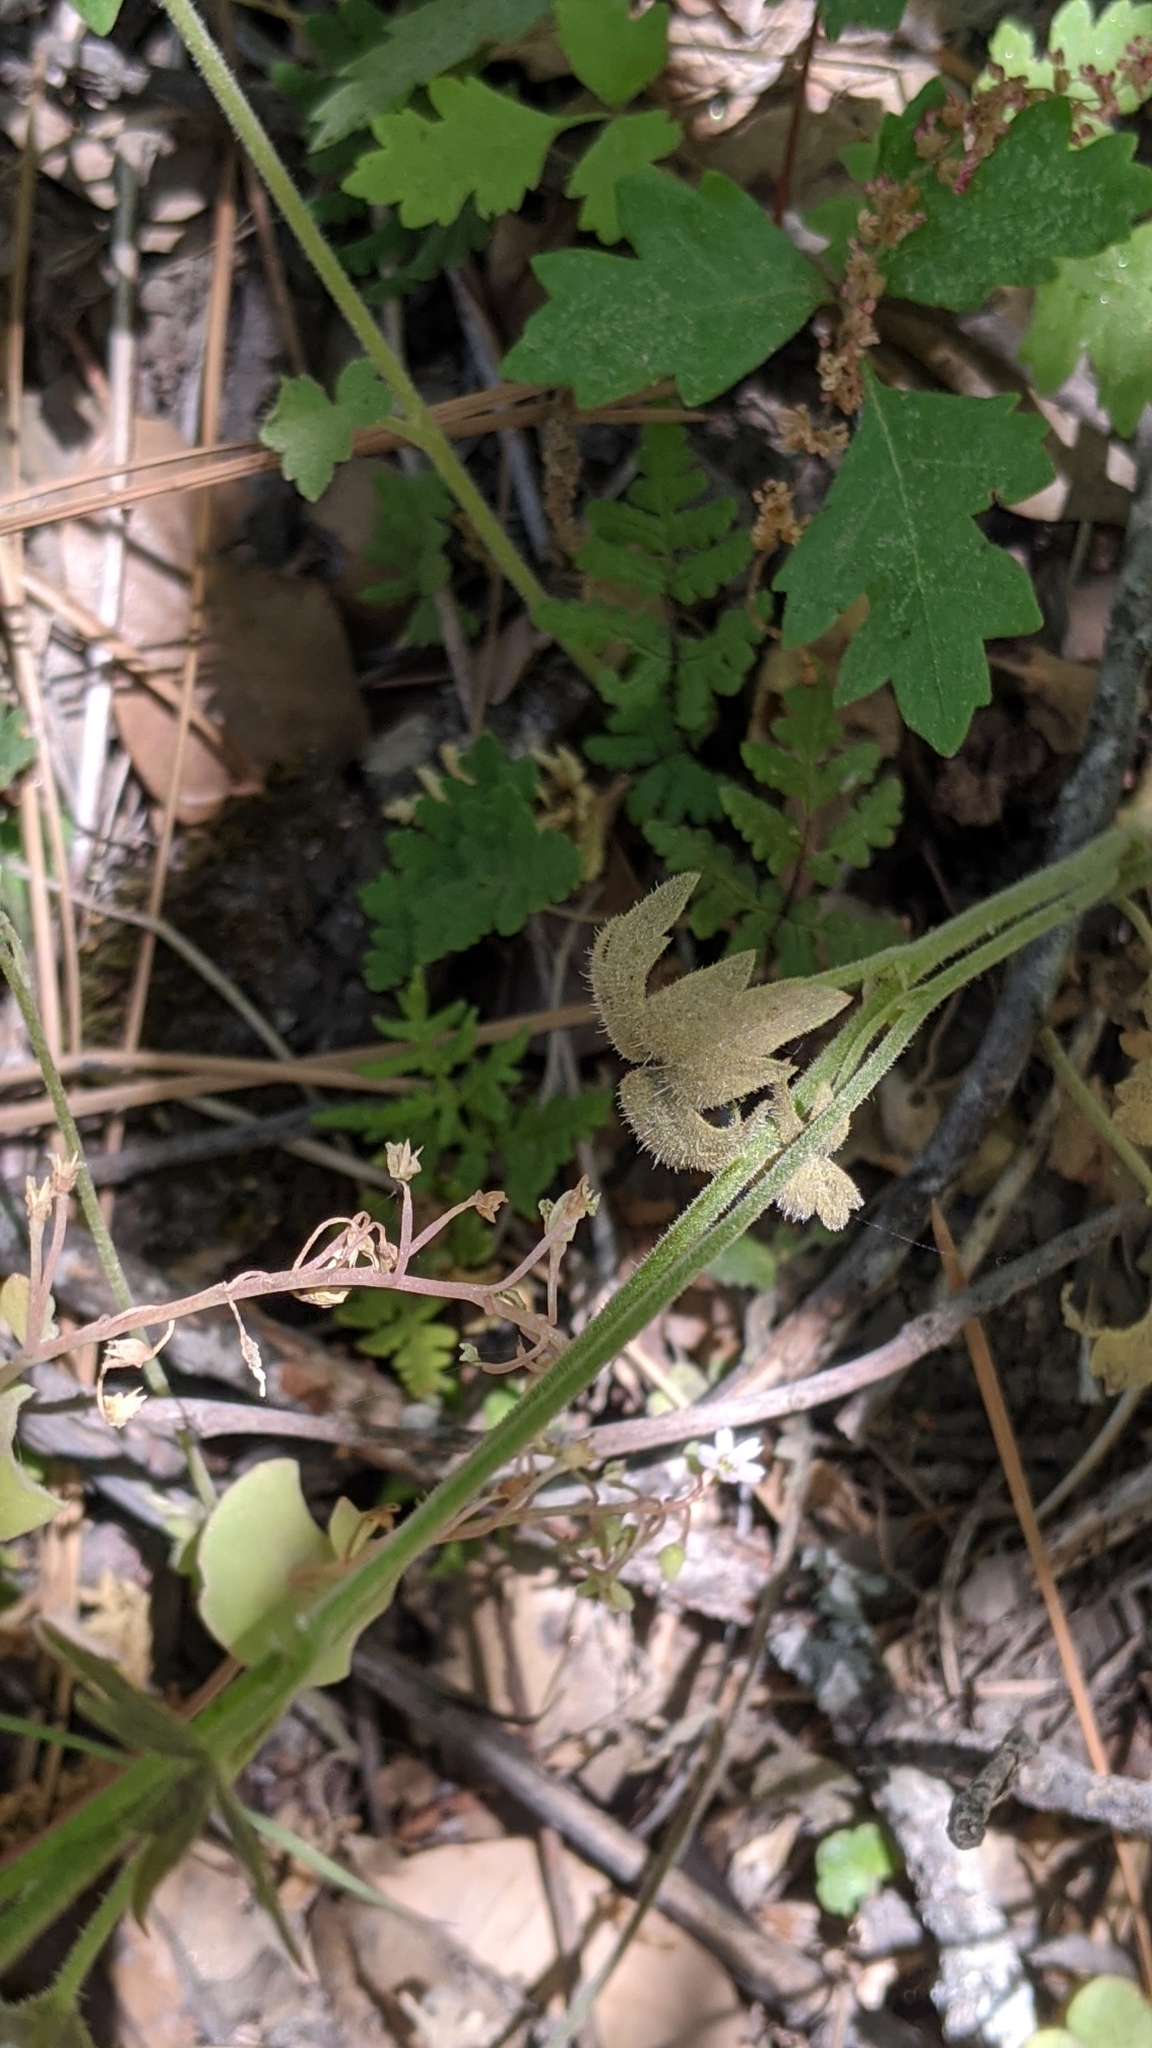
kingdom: Plantae
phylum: Tracheophyta
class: Magnoliopsida
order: Saxifragales
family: Saxifragaceae
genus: Lithophragma
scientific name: Lithophragma bolanderi
